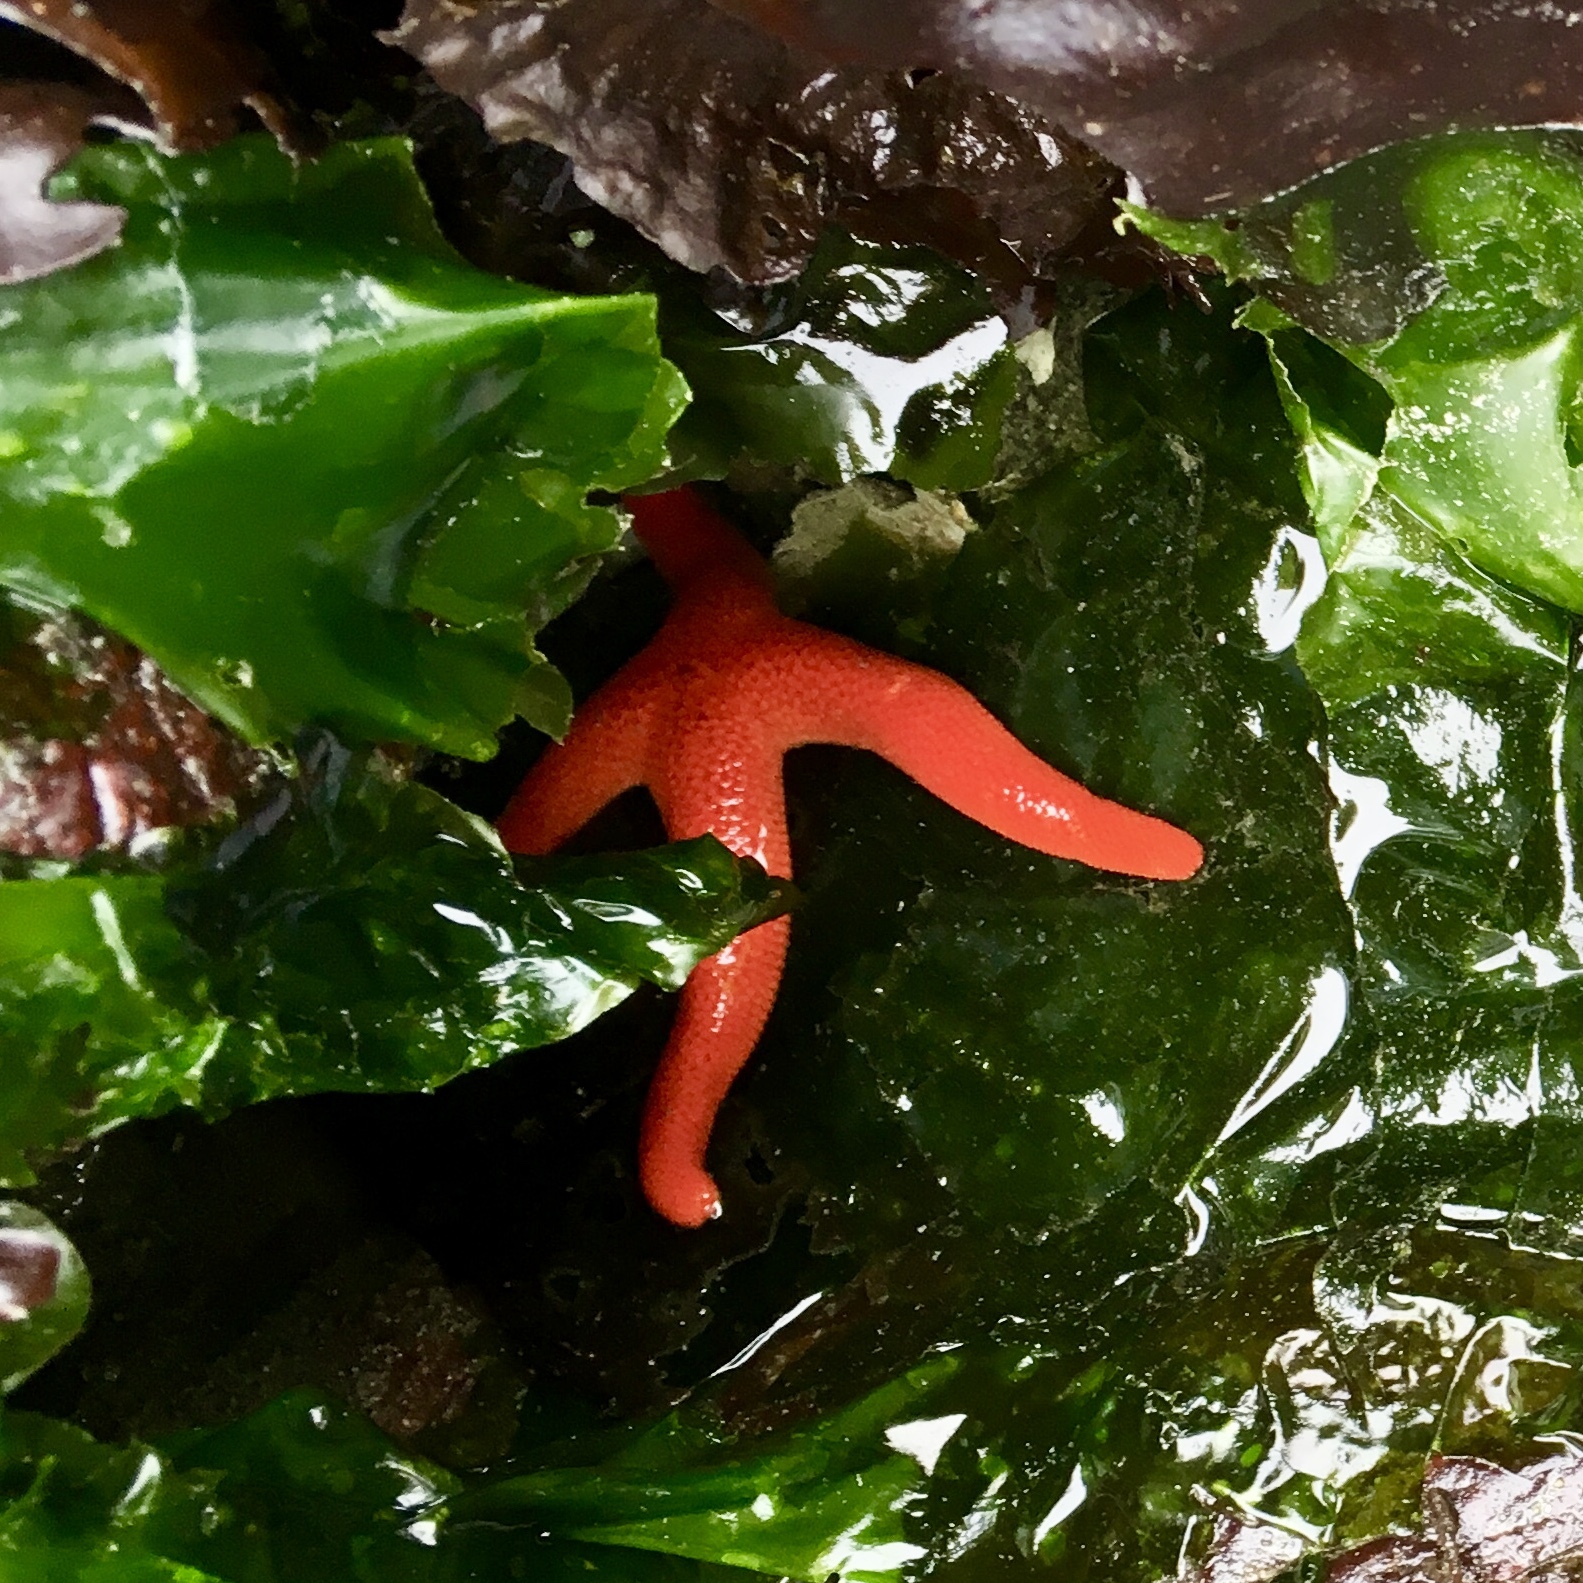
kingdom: Animalia
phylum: Echinodermata
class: Asteroidea
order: Spinulosida
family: Echinasteridae
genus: Henricia
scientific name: Henricia
